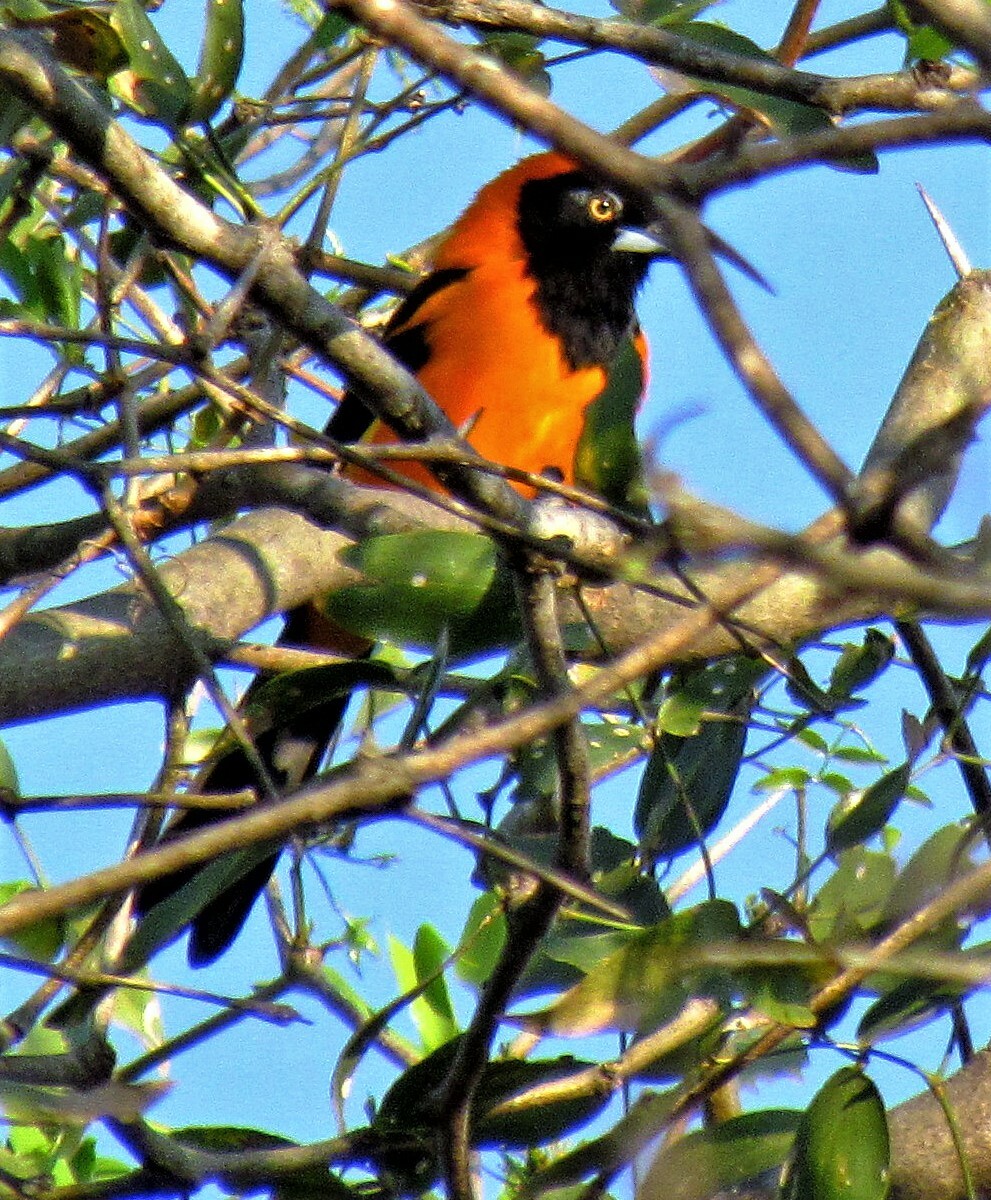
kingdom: Animalia
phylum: Chordata
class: Aves
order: Passeriformes
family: Icteridae
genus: Icterus
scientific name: Icterus icterus
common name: Venezuelan troupial
